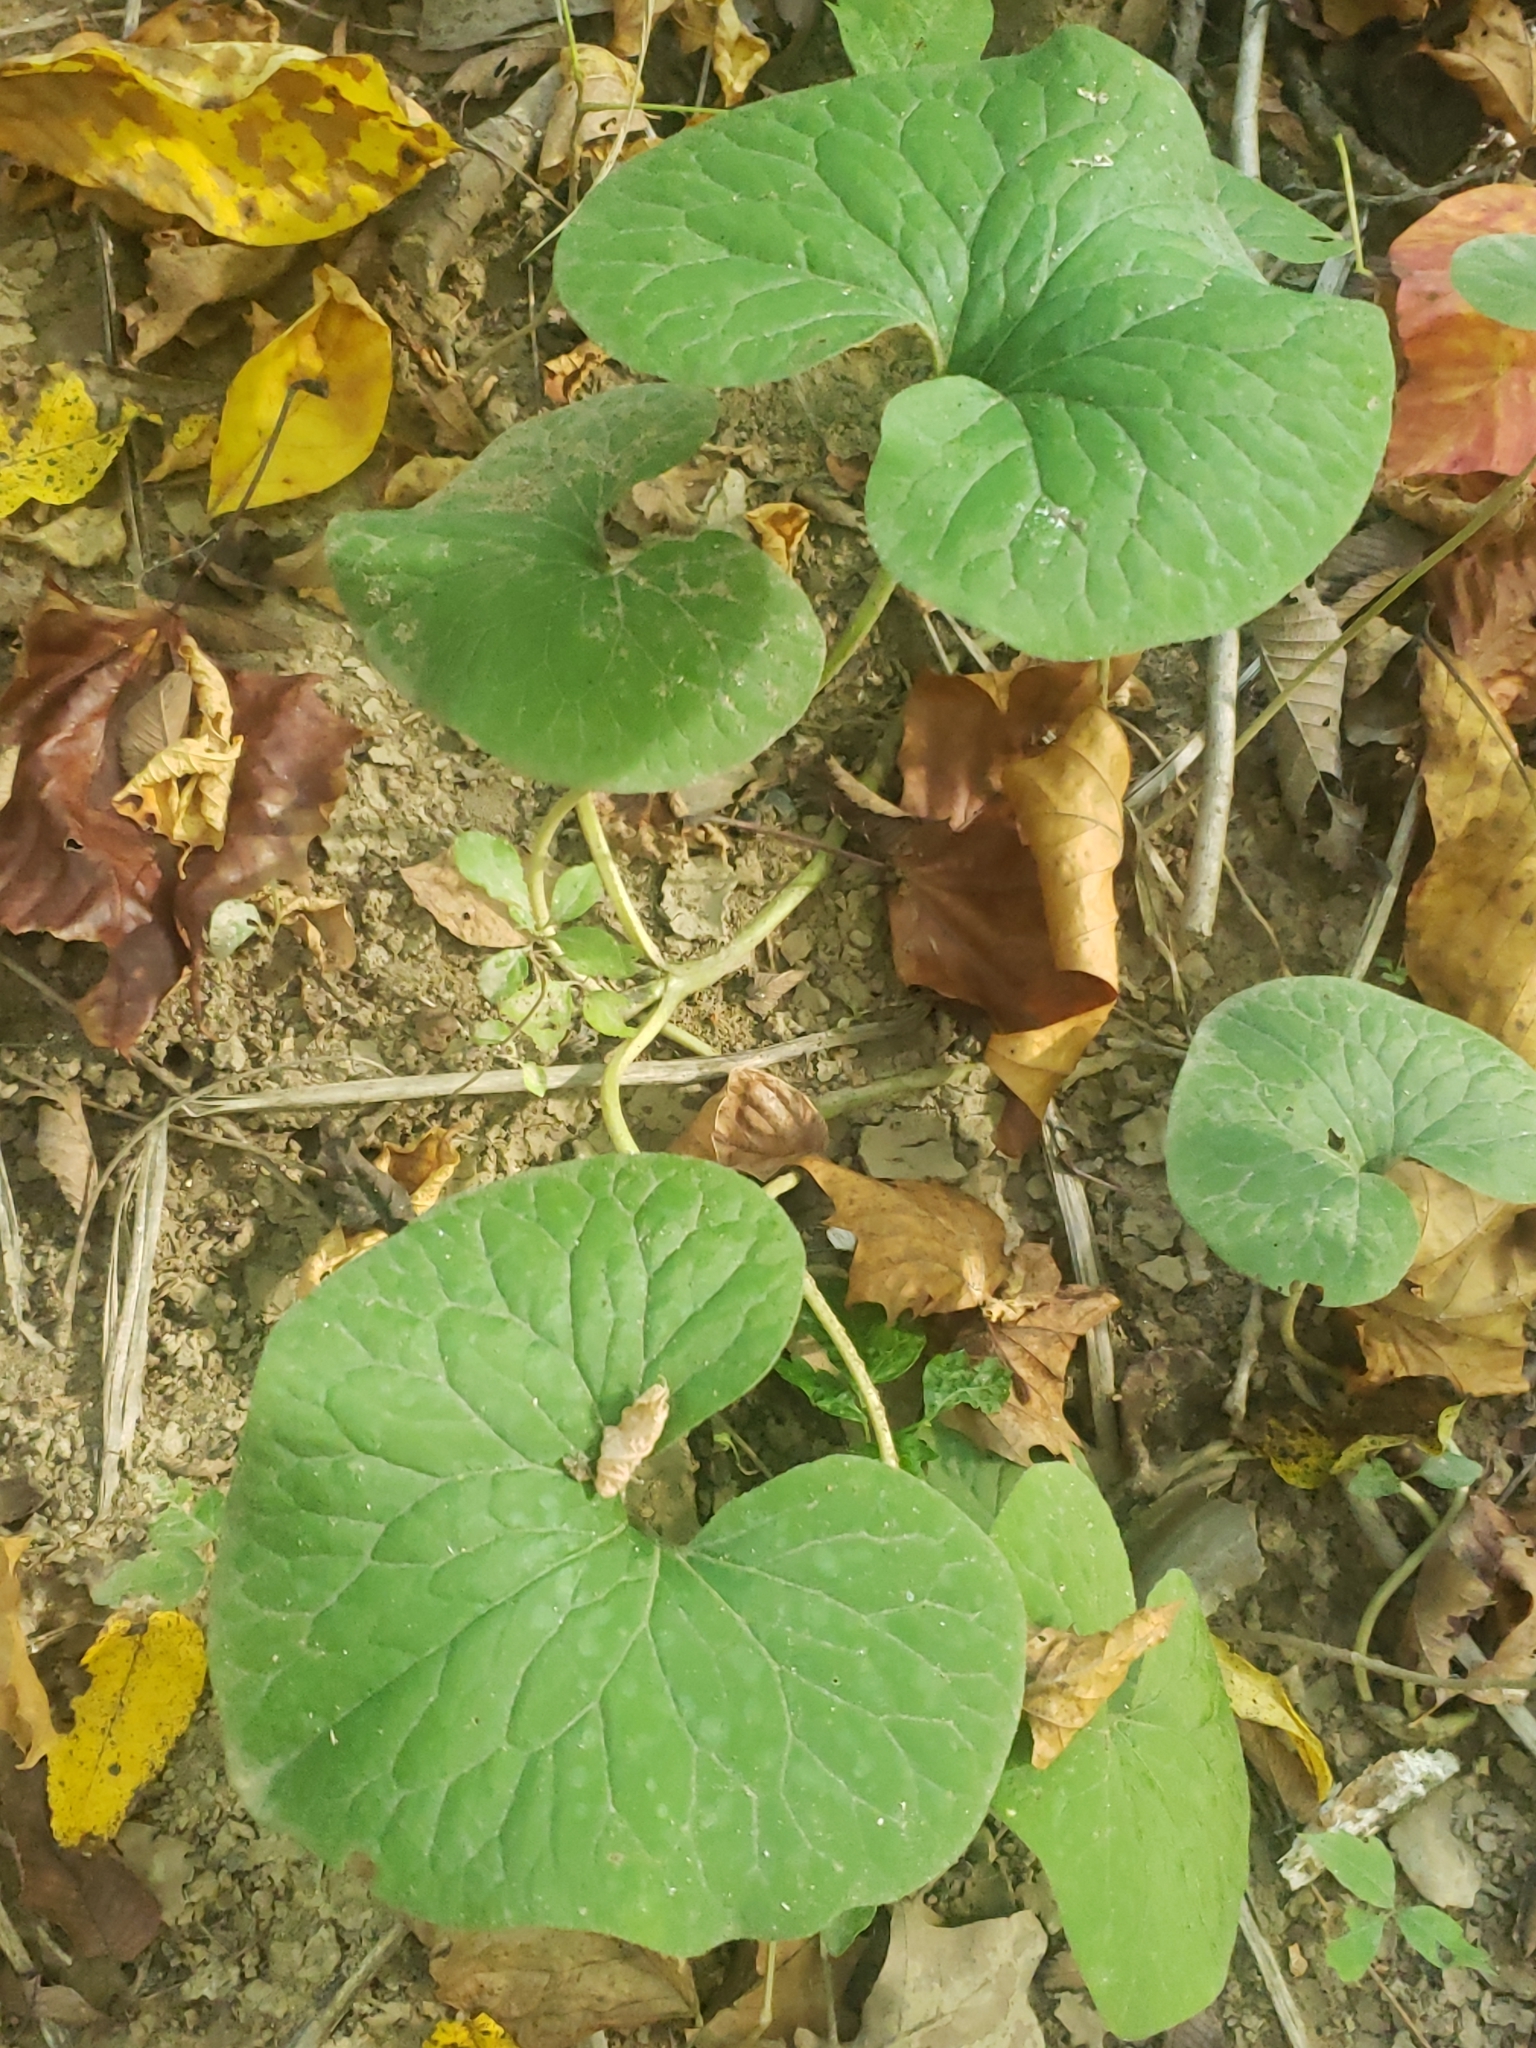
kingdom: Plantae
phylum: Tracheophyta
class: Magnoliopsida
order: Piperales
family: Aristolochiaceae
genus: Asarum
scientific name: Asarum canadense
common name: Wild ginger
